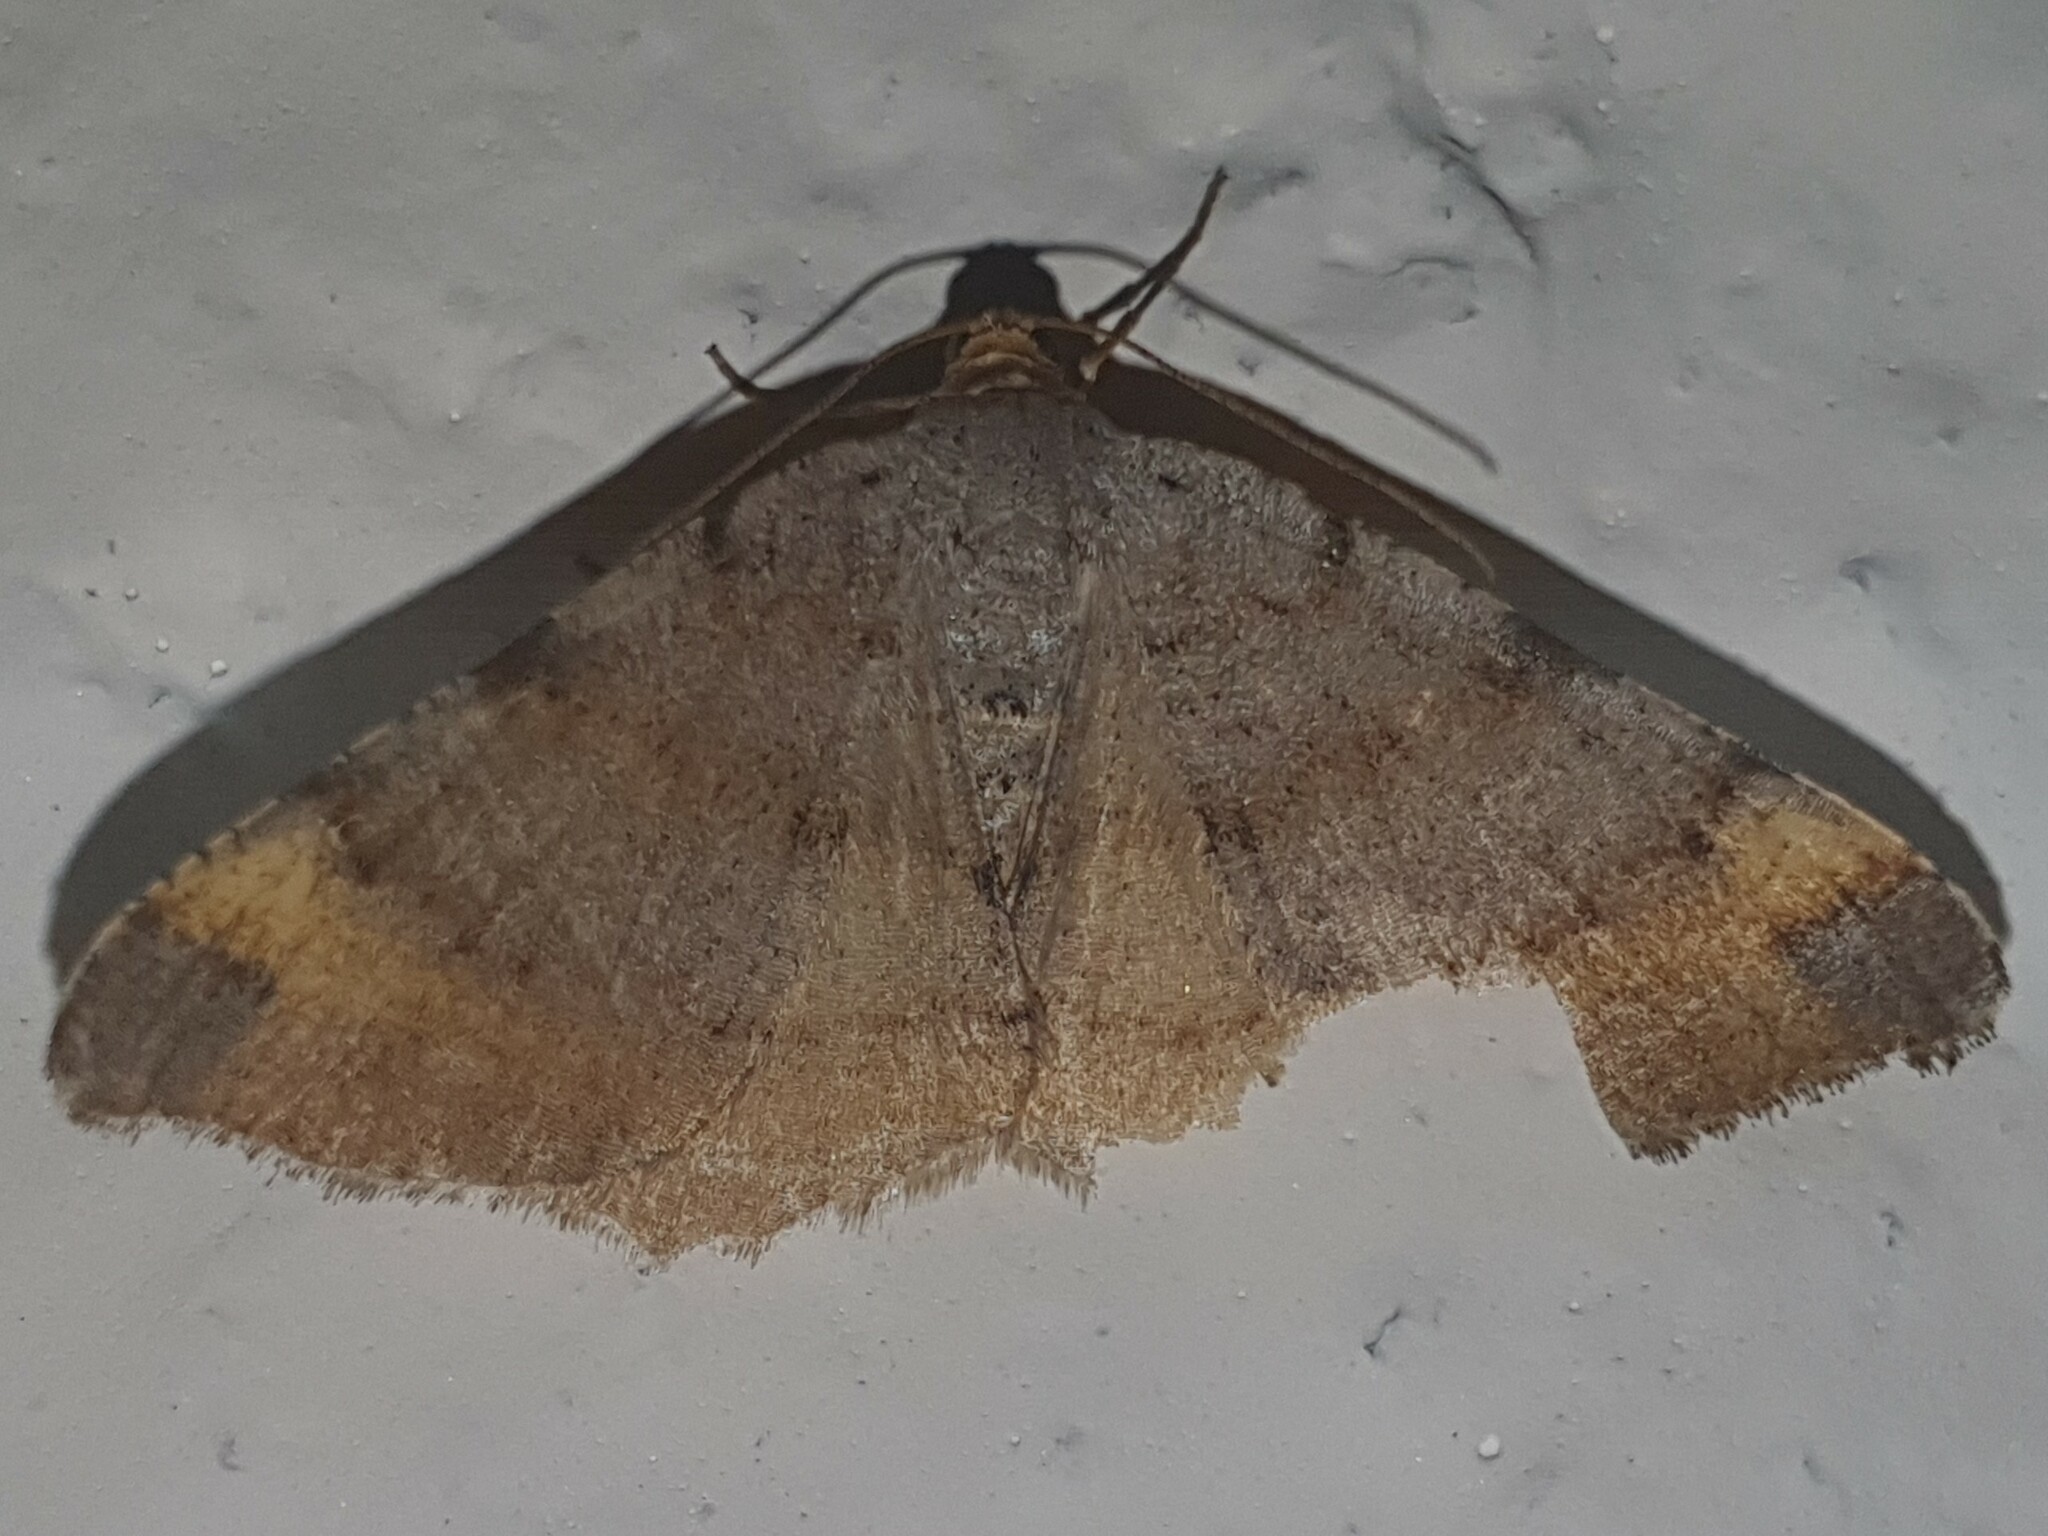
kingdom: Animalia
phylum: Arthropoda
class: Insecta
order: Lepidoptera
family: Geometridae
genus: Macaria
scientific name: Macaria liturata
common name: Tawny-barred angle
